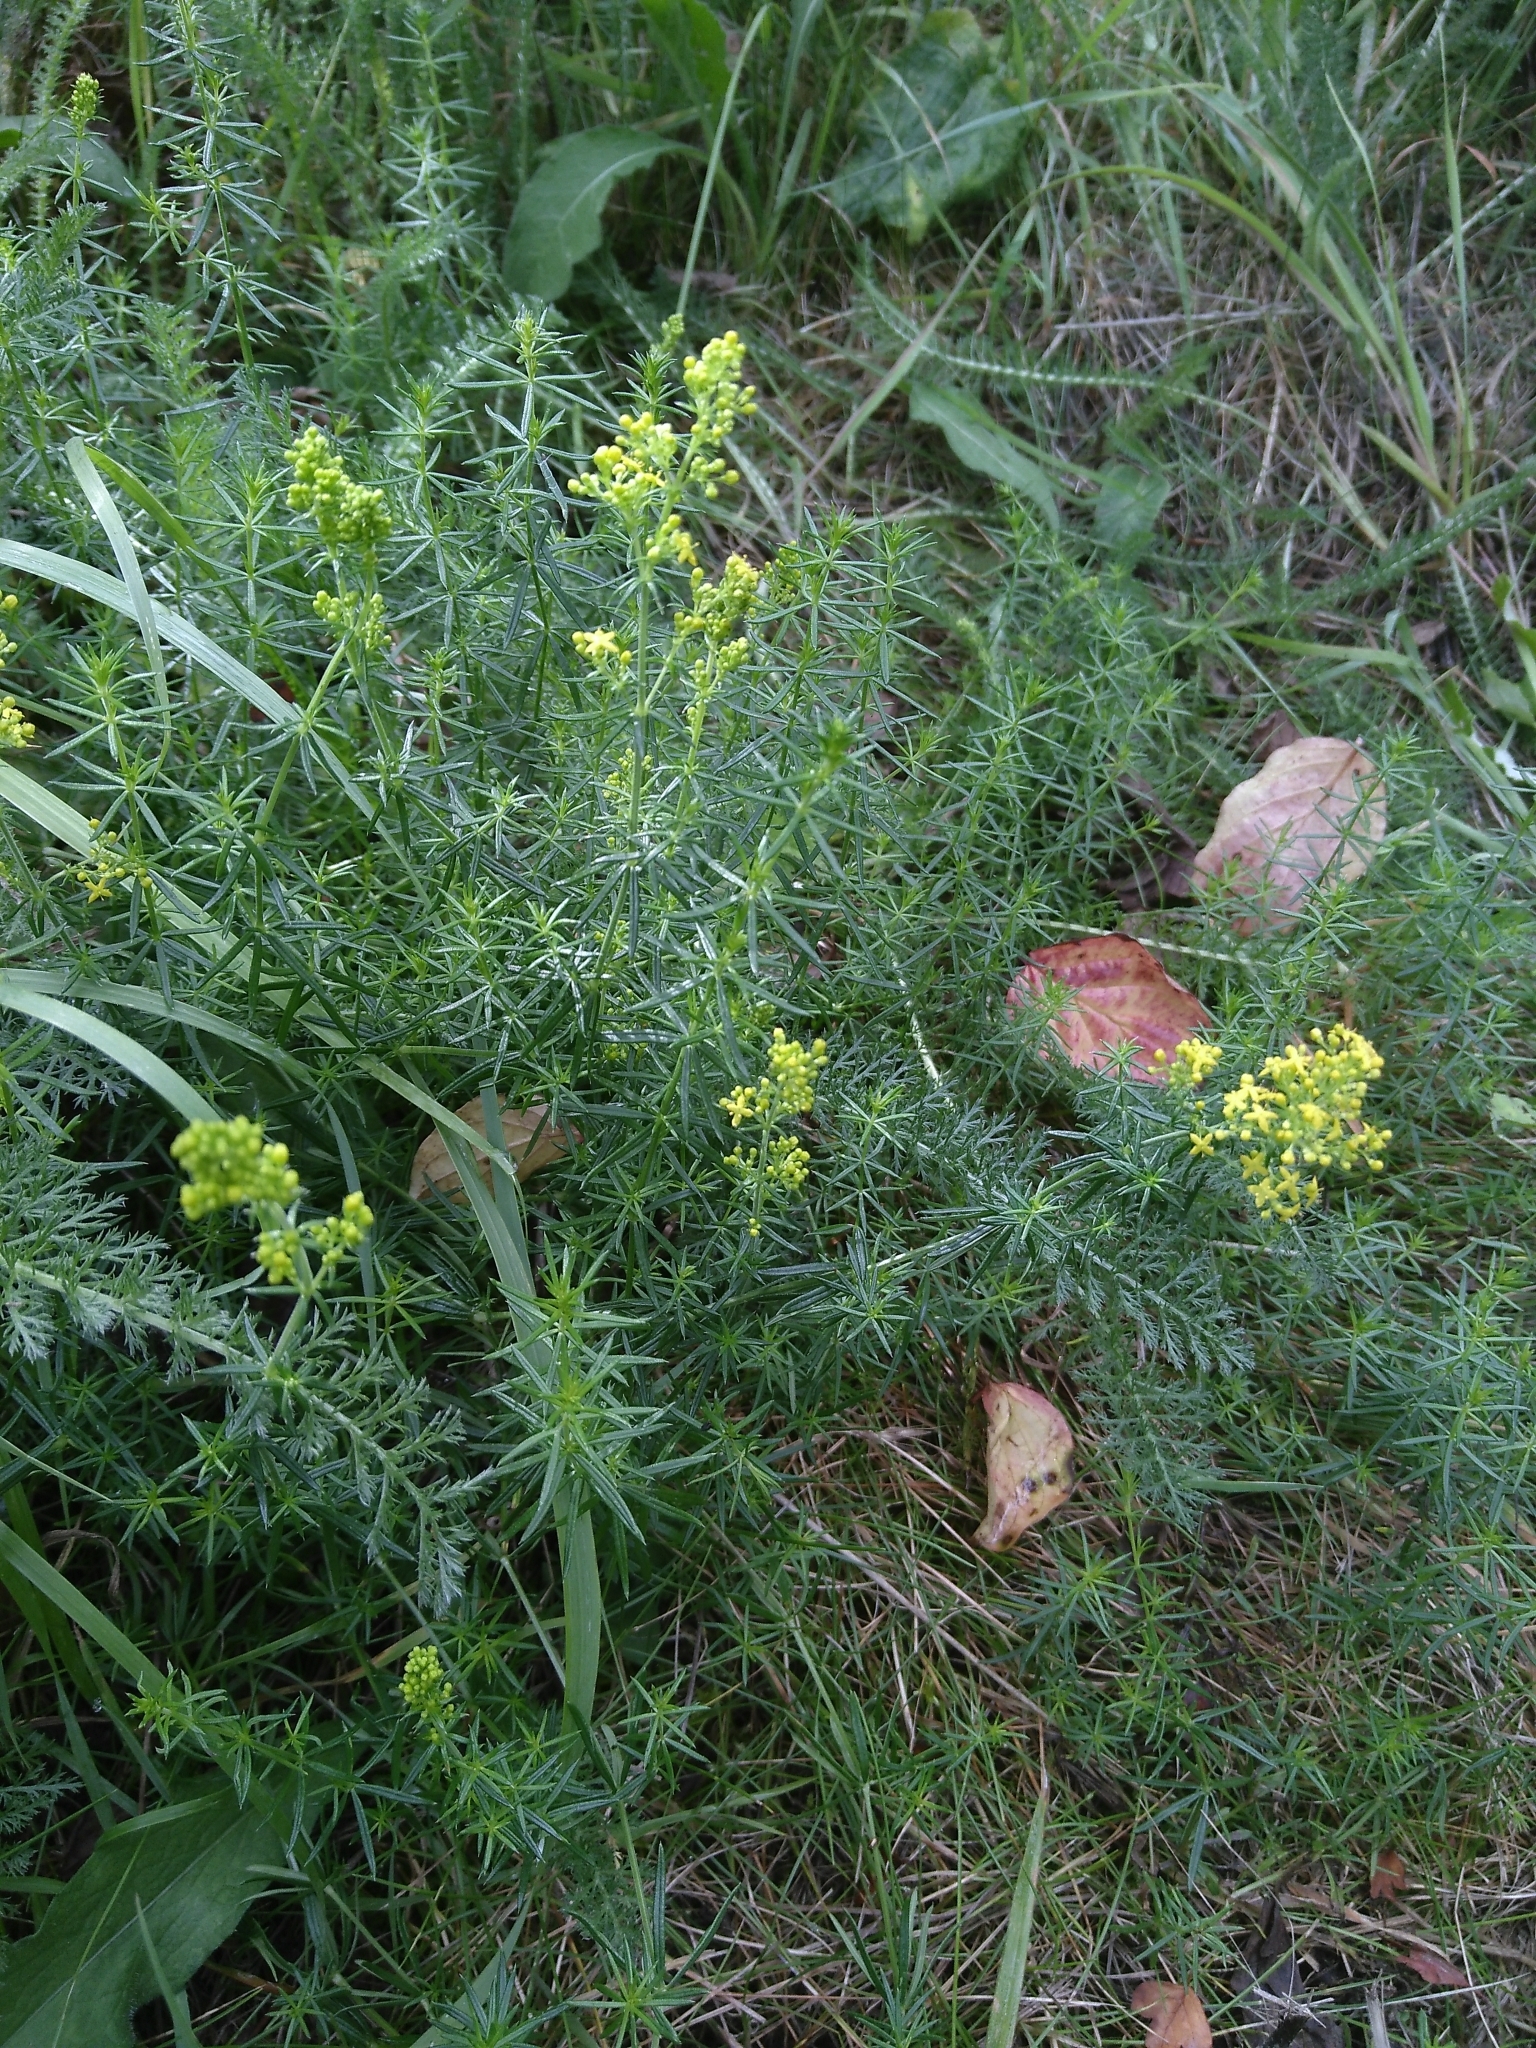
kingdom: Plantae
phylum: Tracheophyta
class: Magnoliopsida
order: Gentianales
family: Rubiaceae
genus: Galium
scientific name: Galium verum
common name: Lady's bedstraw
